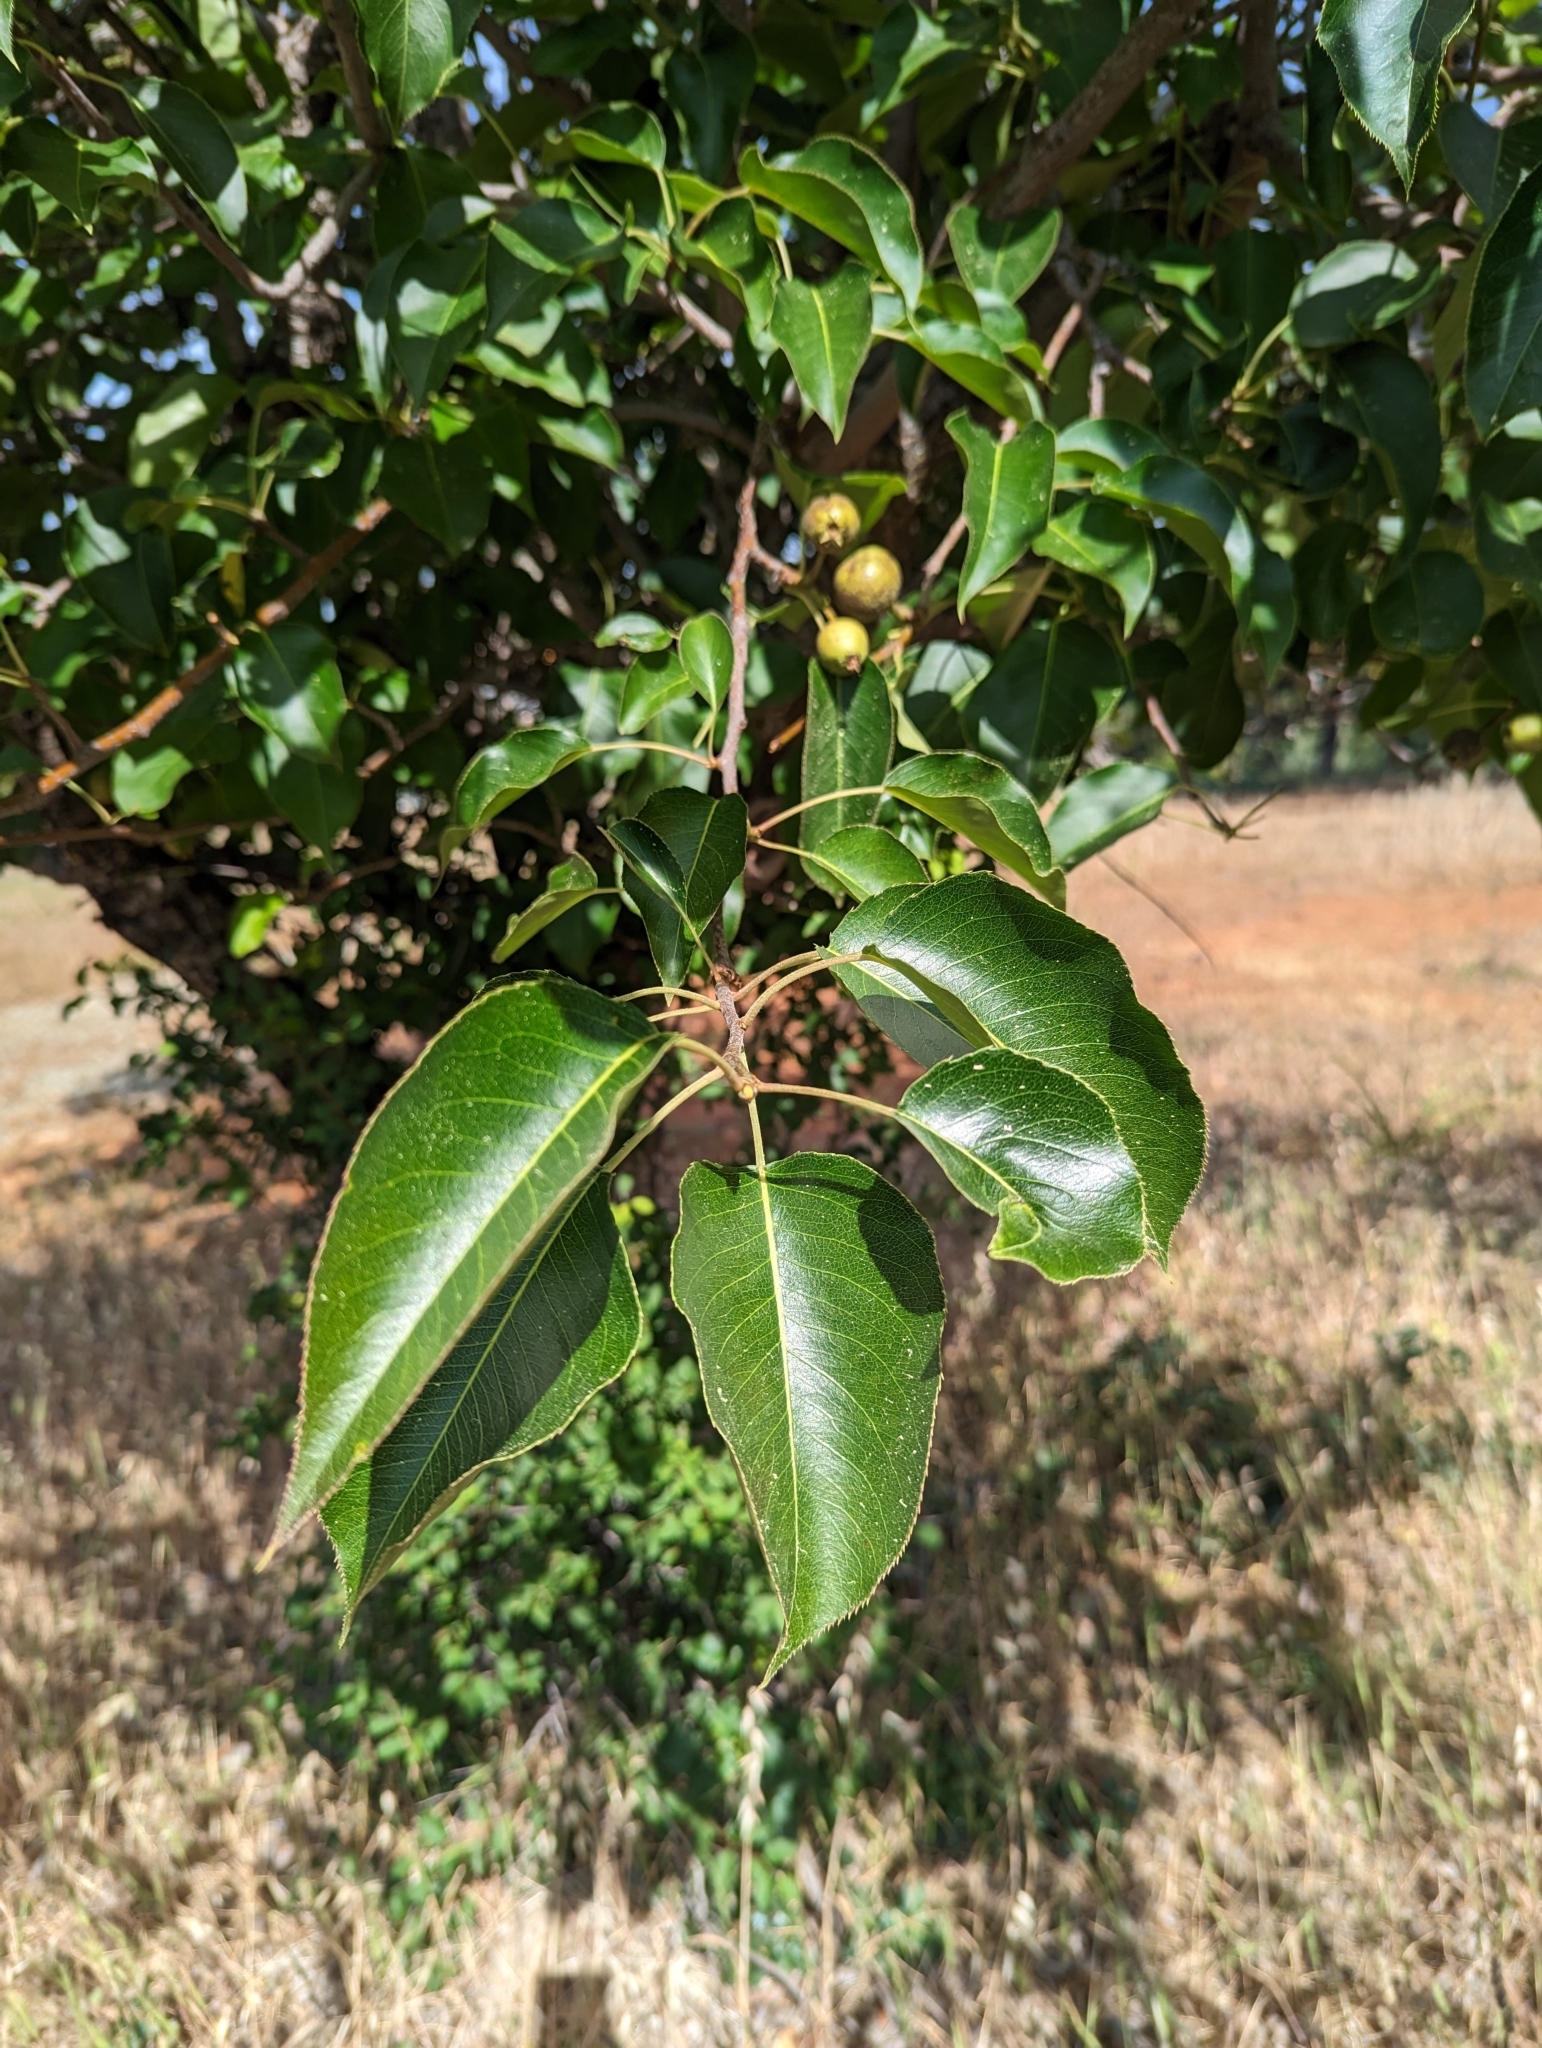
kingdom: Plantae
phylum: Tracheophyta
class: Magnoliopsida
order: Rosales
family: Rosaceae
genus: Pyrus
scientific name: Pyrus calleryana
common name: Callery pear
